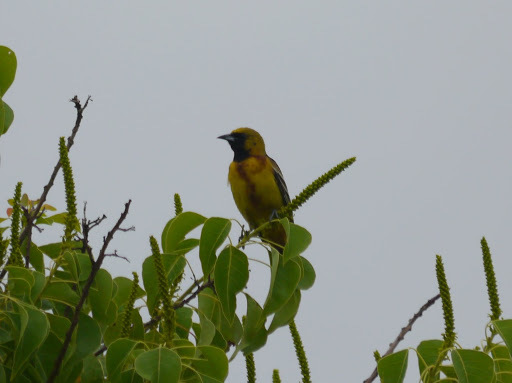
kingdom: Animalia
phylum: Chordata
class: Aves
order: Passeriformes
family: Icteridae
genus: Icterus
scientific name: Icterus spurius
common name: Orchard oriole
